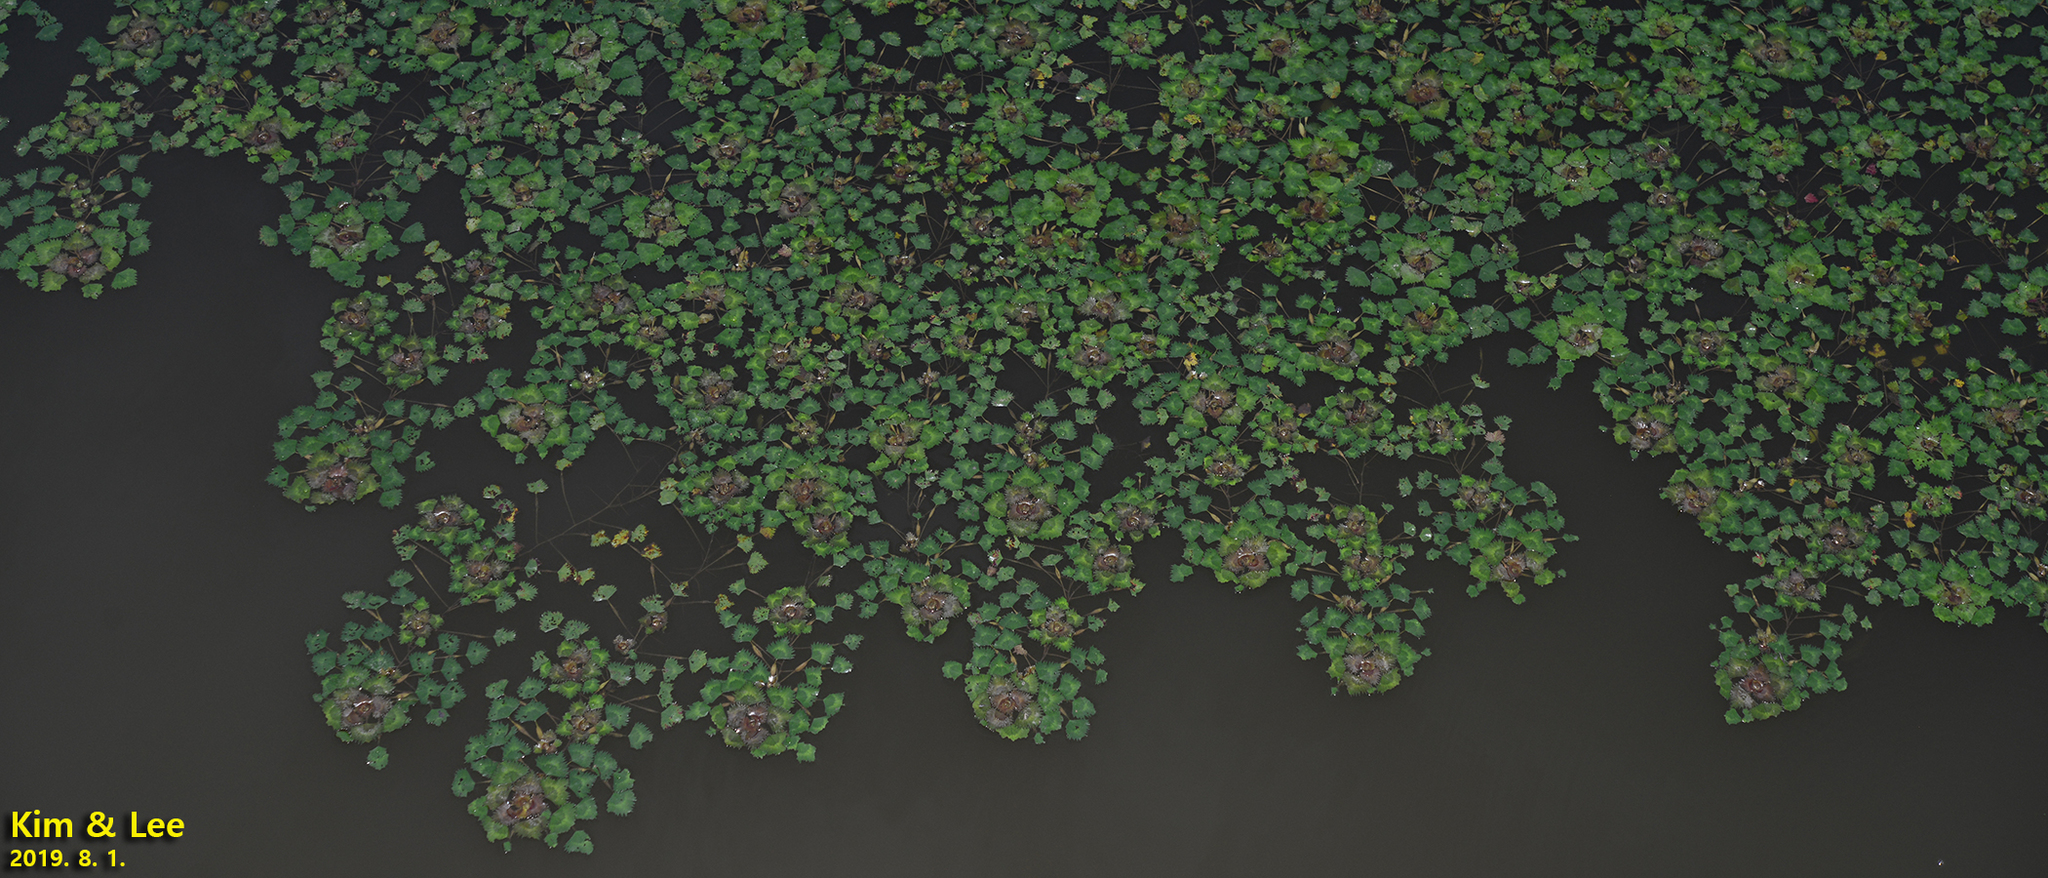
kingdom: Plantae
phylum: Tracheophyta
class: Magnoliopsida
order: Myrtales
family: Lythraceae
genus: Trapa
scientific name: Trapa natans
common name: Water chestnut
